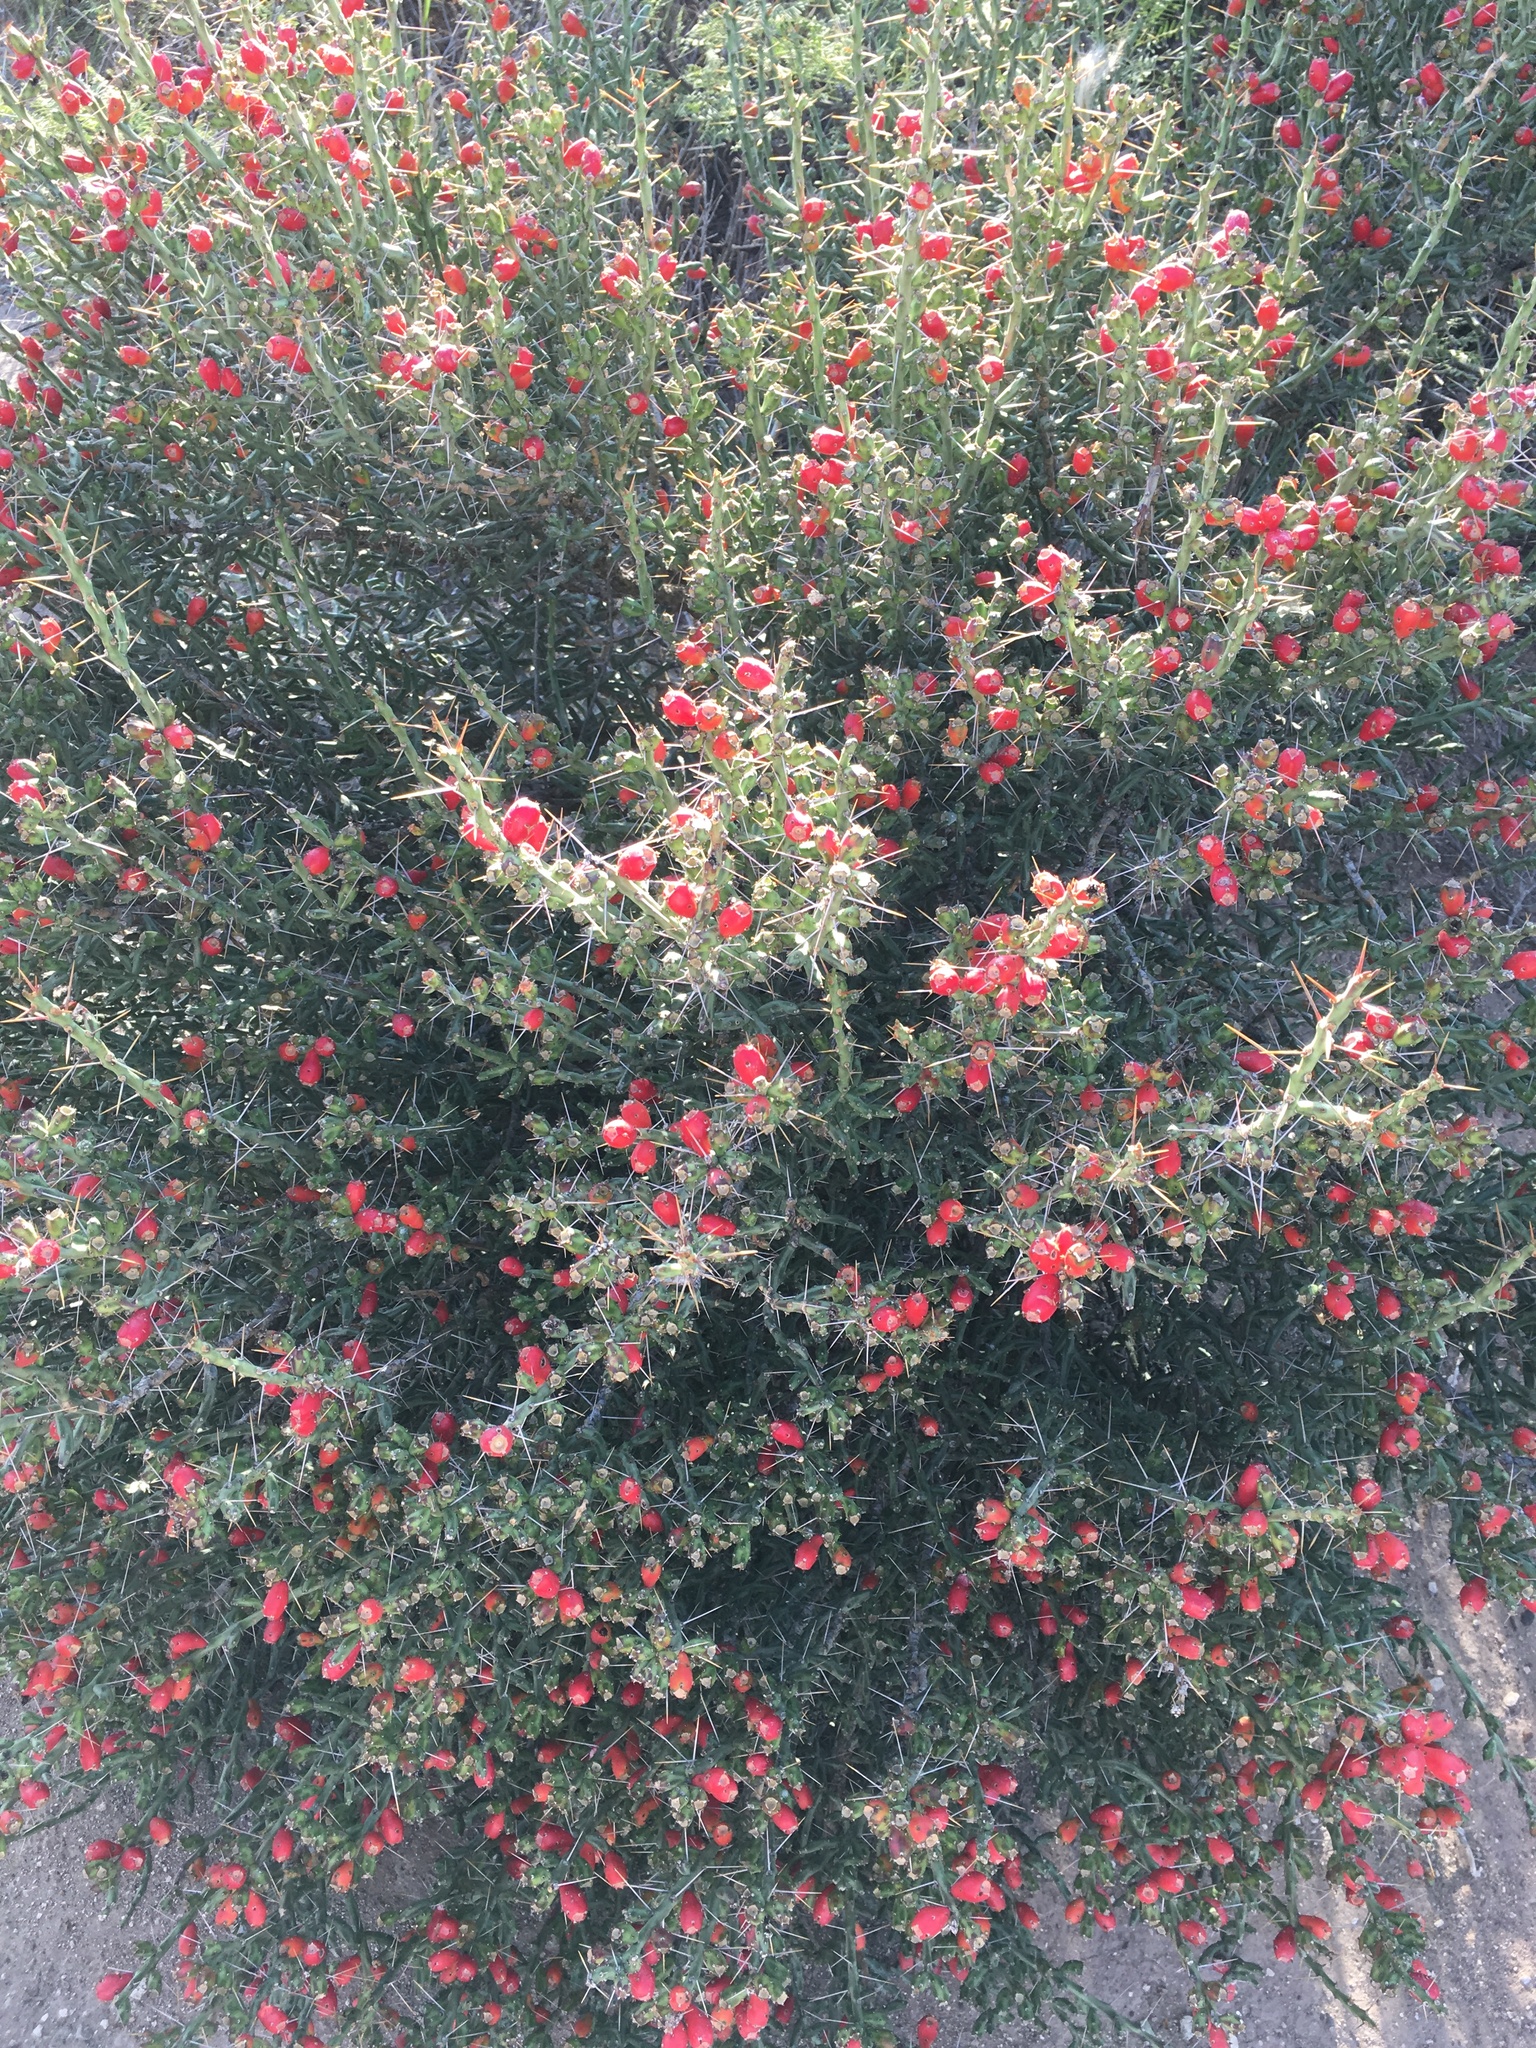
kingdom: Plantae
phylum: Tracheophyta
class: Magnoliopsida
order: Caryophyllales
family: Cactaceae
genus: Cylindropuntia
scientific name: Cylindropuntia leptocaulis
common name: Christmas cactus
